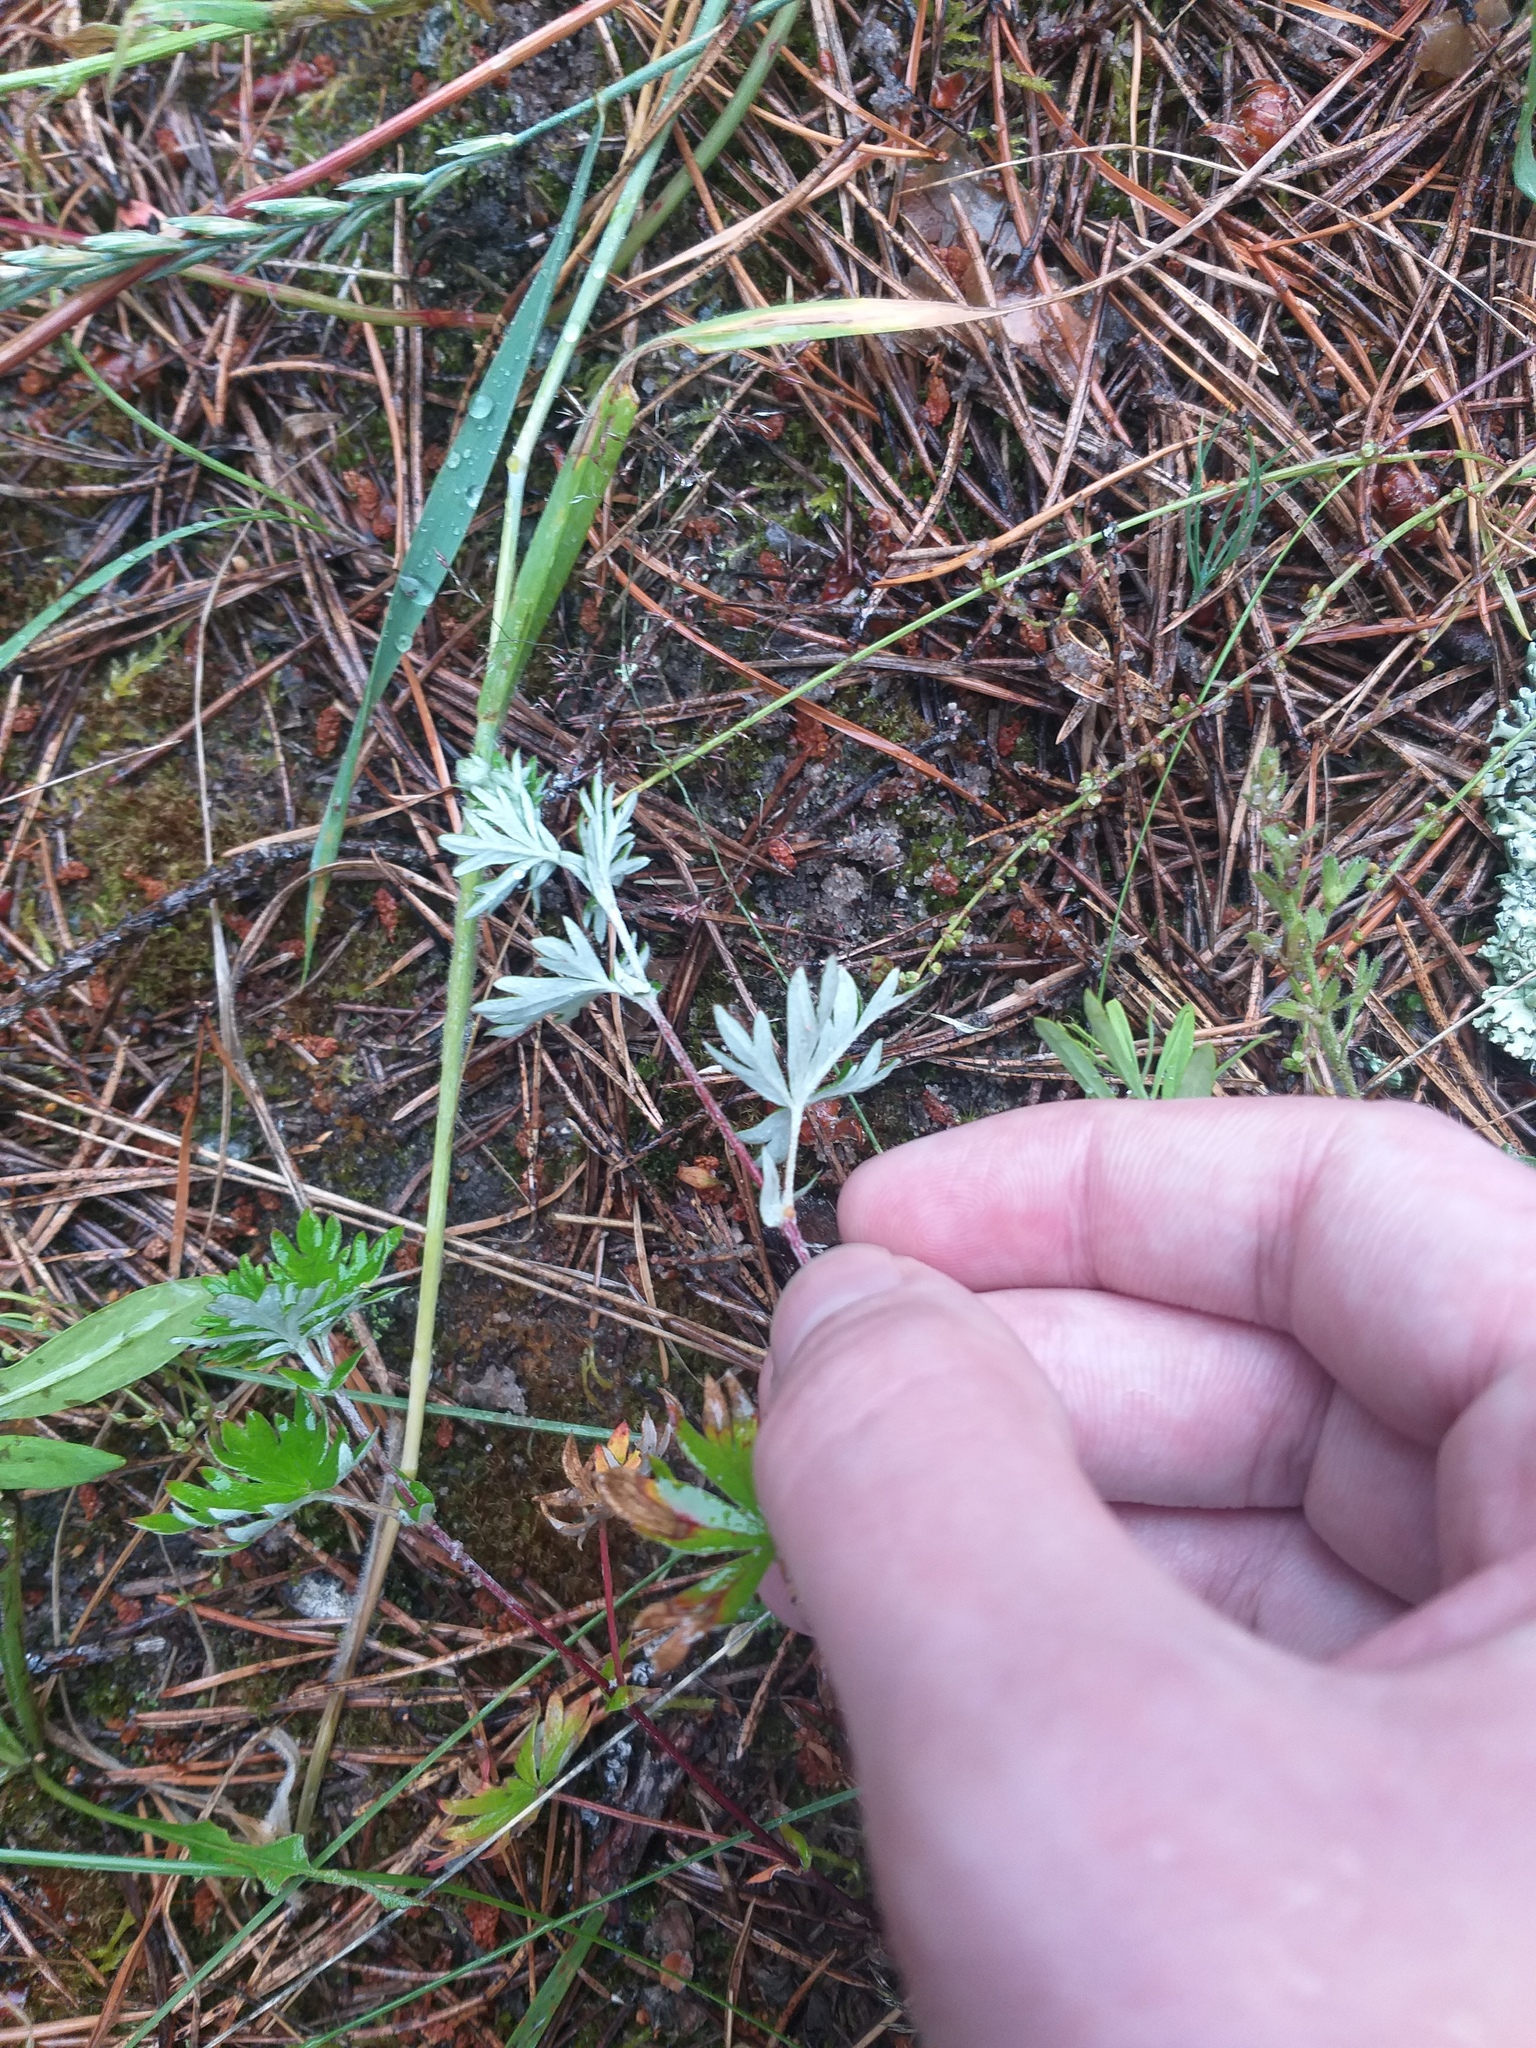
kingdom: Plantae
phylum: Tracheophyta
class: Magnoliopsida
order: Rosales
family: Rosaceae
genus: Potentilla
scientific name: Potentilla argentea
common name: Hoary cinquefoil
